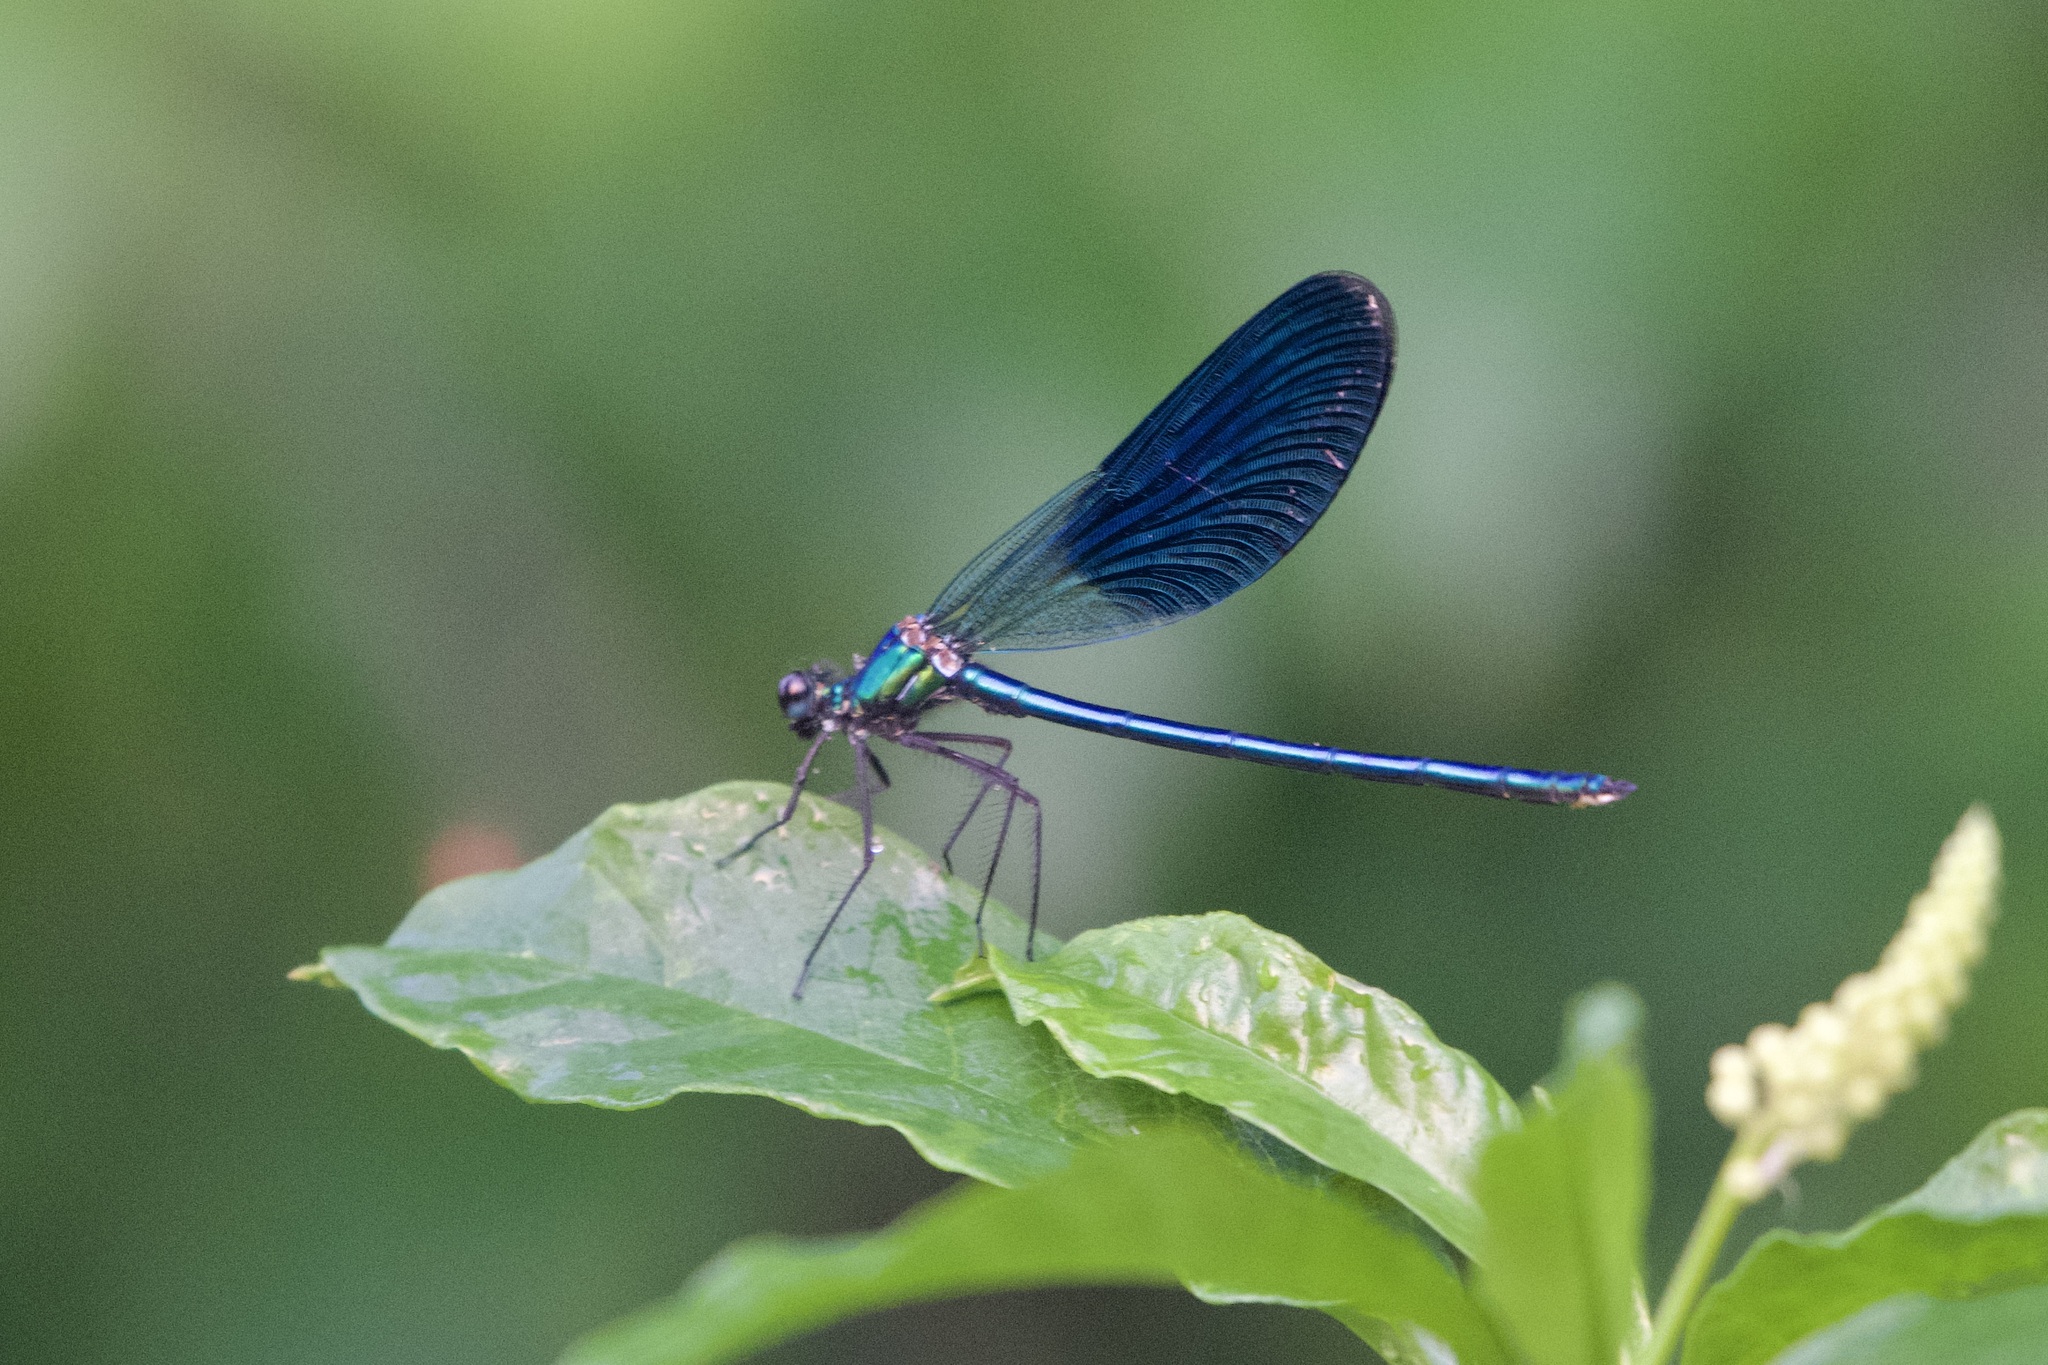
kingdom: Animalia
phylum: Arthropoda
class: Insecta
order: Odonata
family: Calopterygidae
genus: Calopteryx
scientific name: Calopteryx splendens
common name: Banded demoiselle
